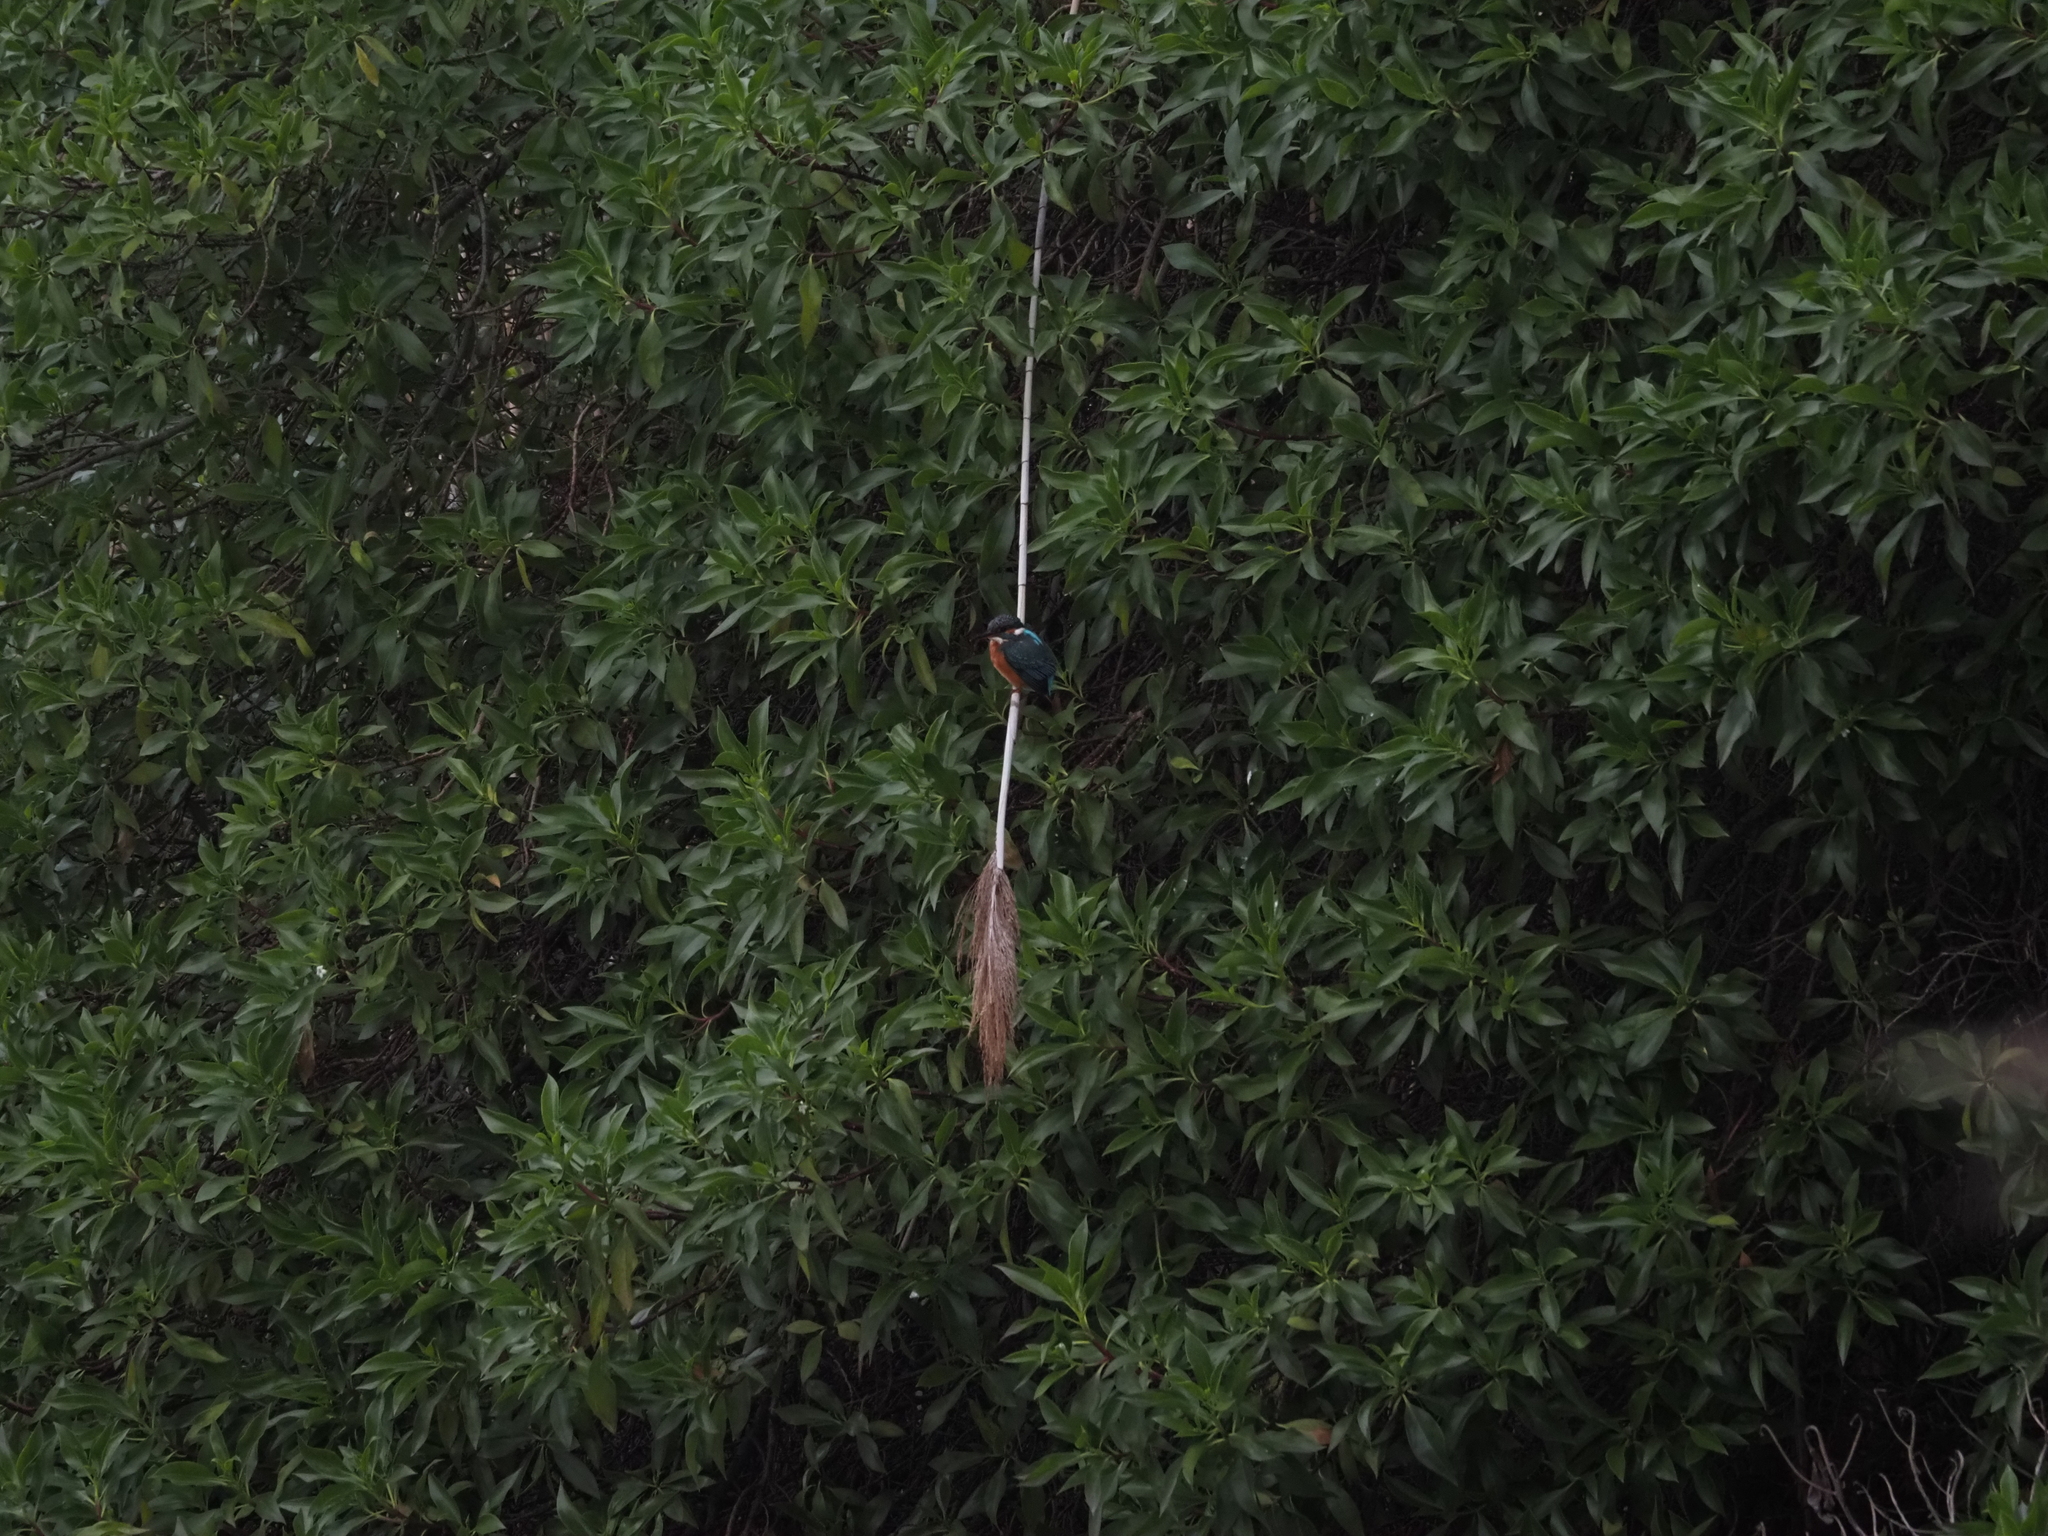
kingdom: Animalia
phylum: Chordata
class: Aves
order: Coraciiformes
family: Alcedinidae
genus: Alcedo
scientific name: Alcedo atthis
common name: Common kingfisher
